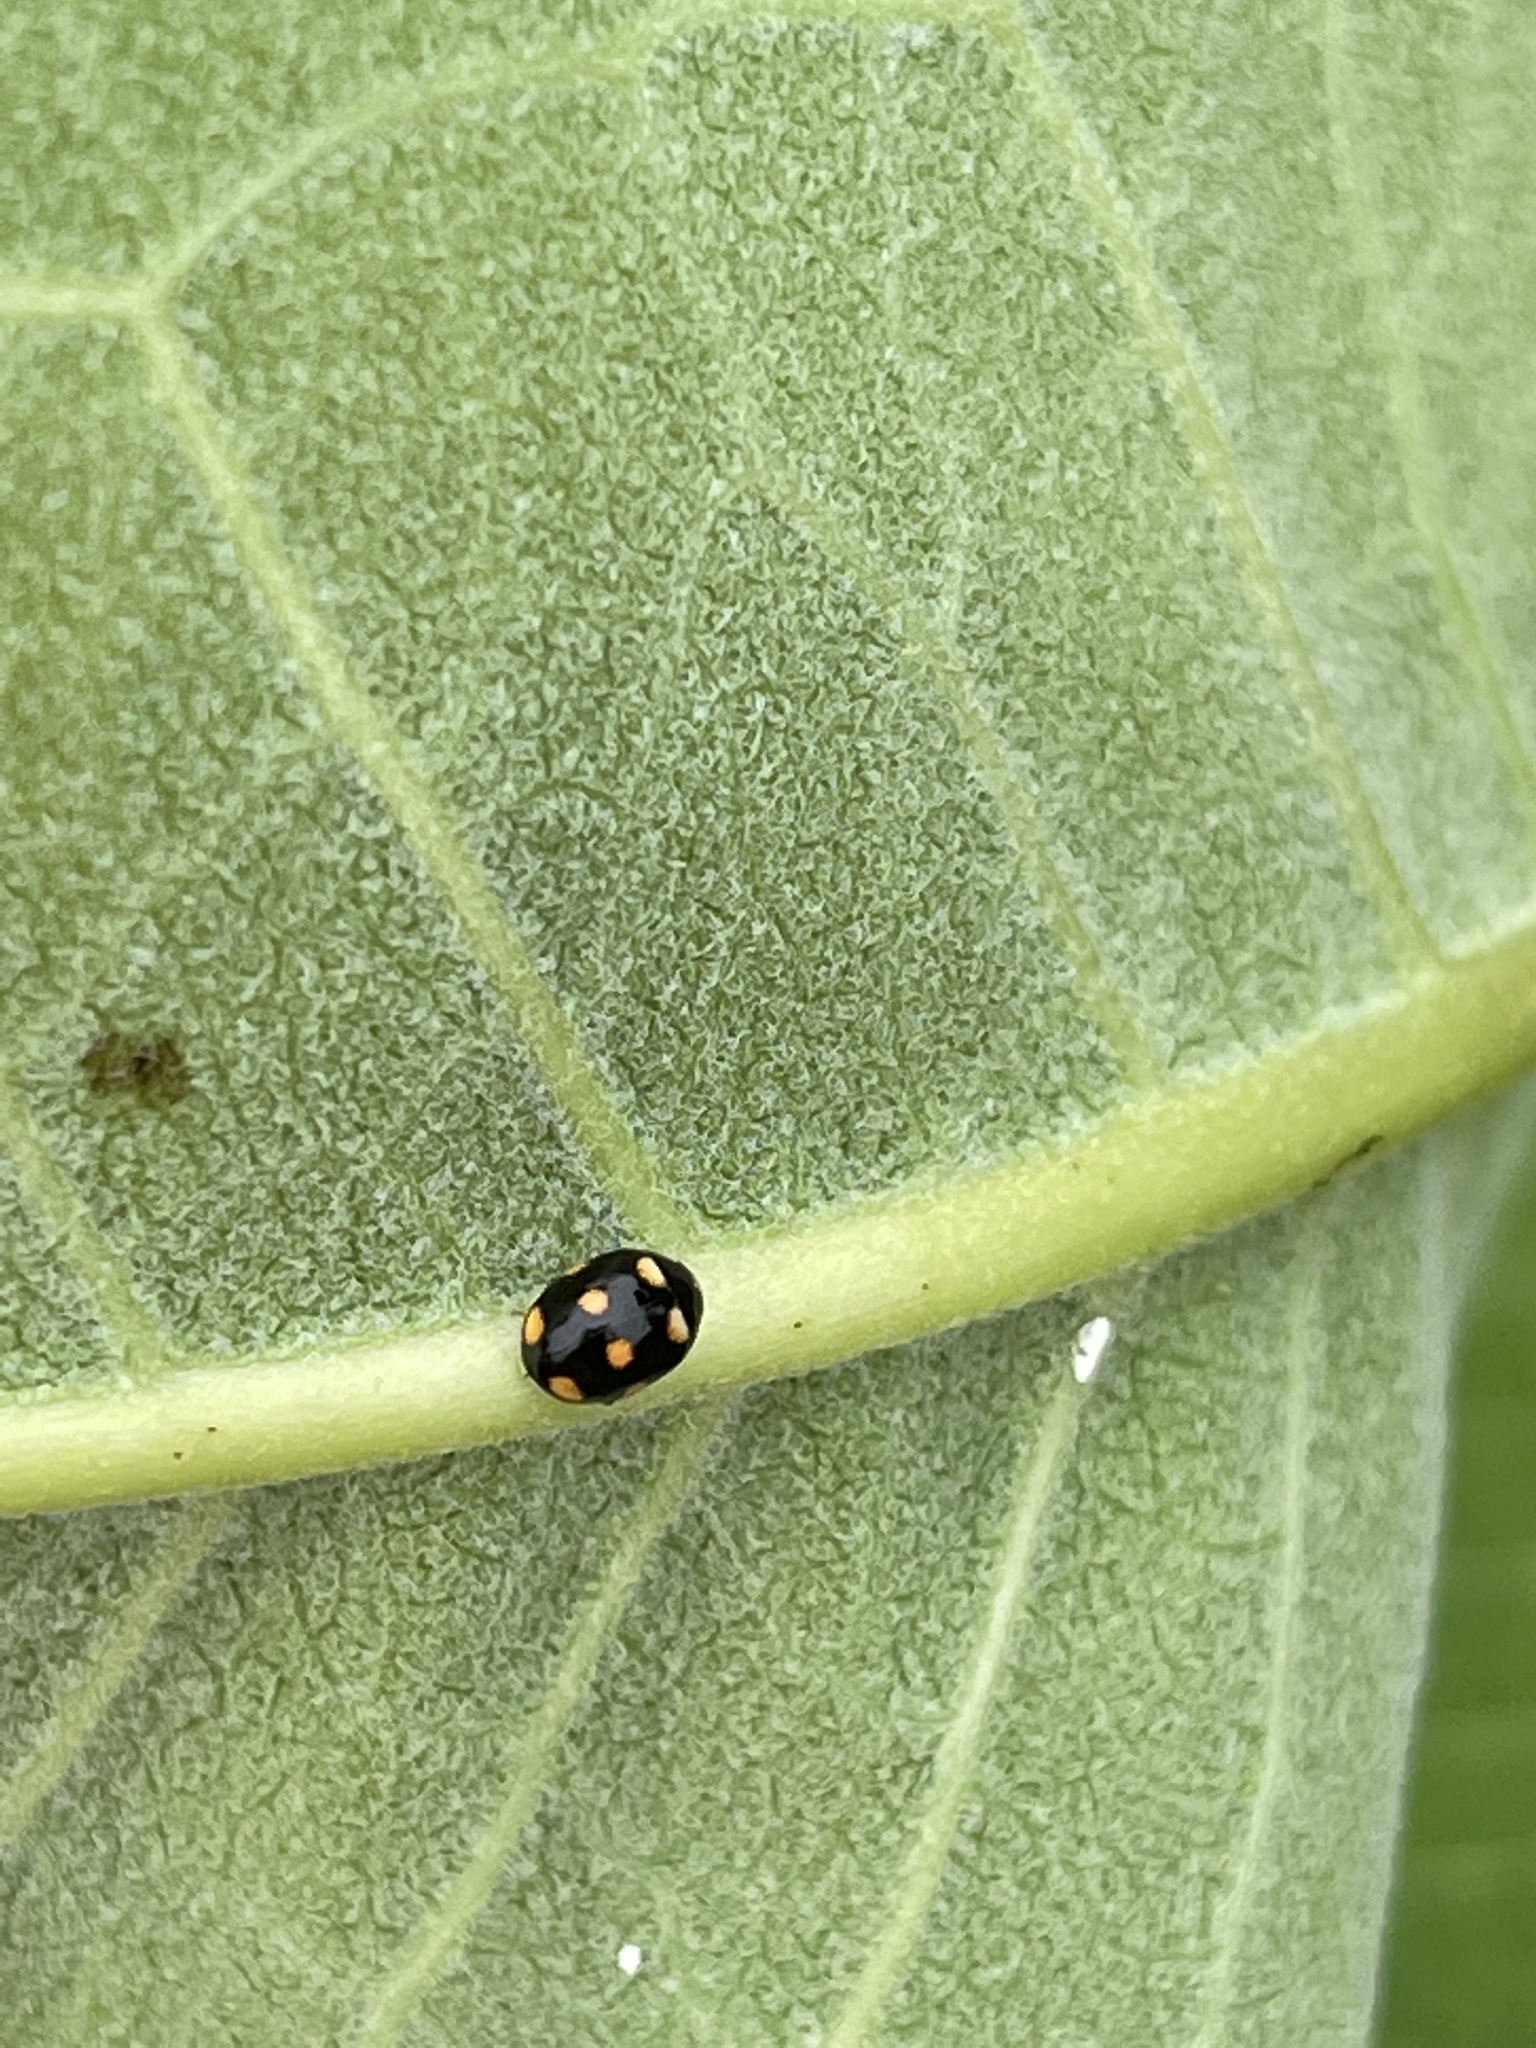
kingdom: Animalia
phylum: Arthropoda
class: Insecta
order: Coleoptera
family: Coccinellidae
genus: Brachiacantha
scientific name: Brachiacantha ursina
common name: Ursine spurleg lady beetle
